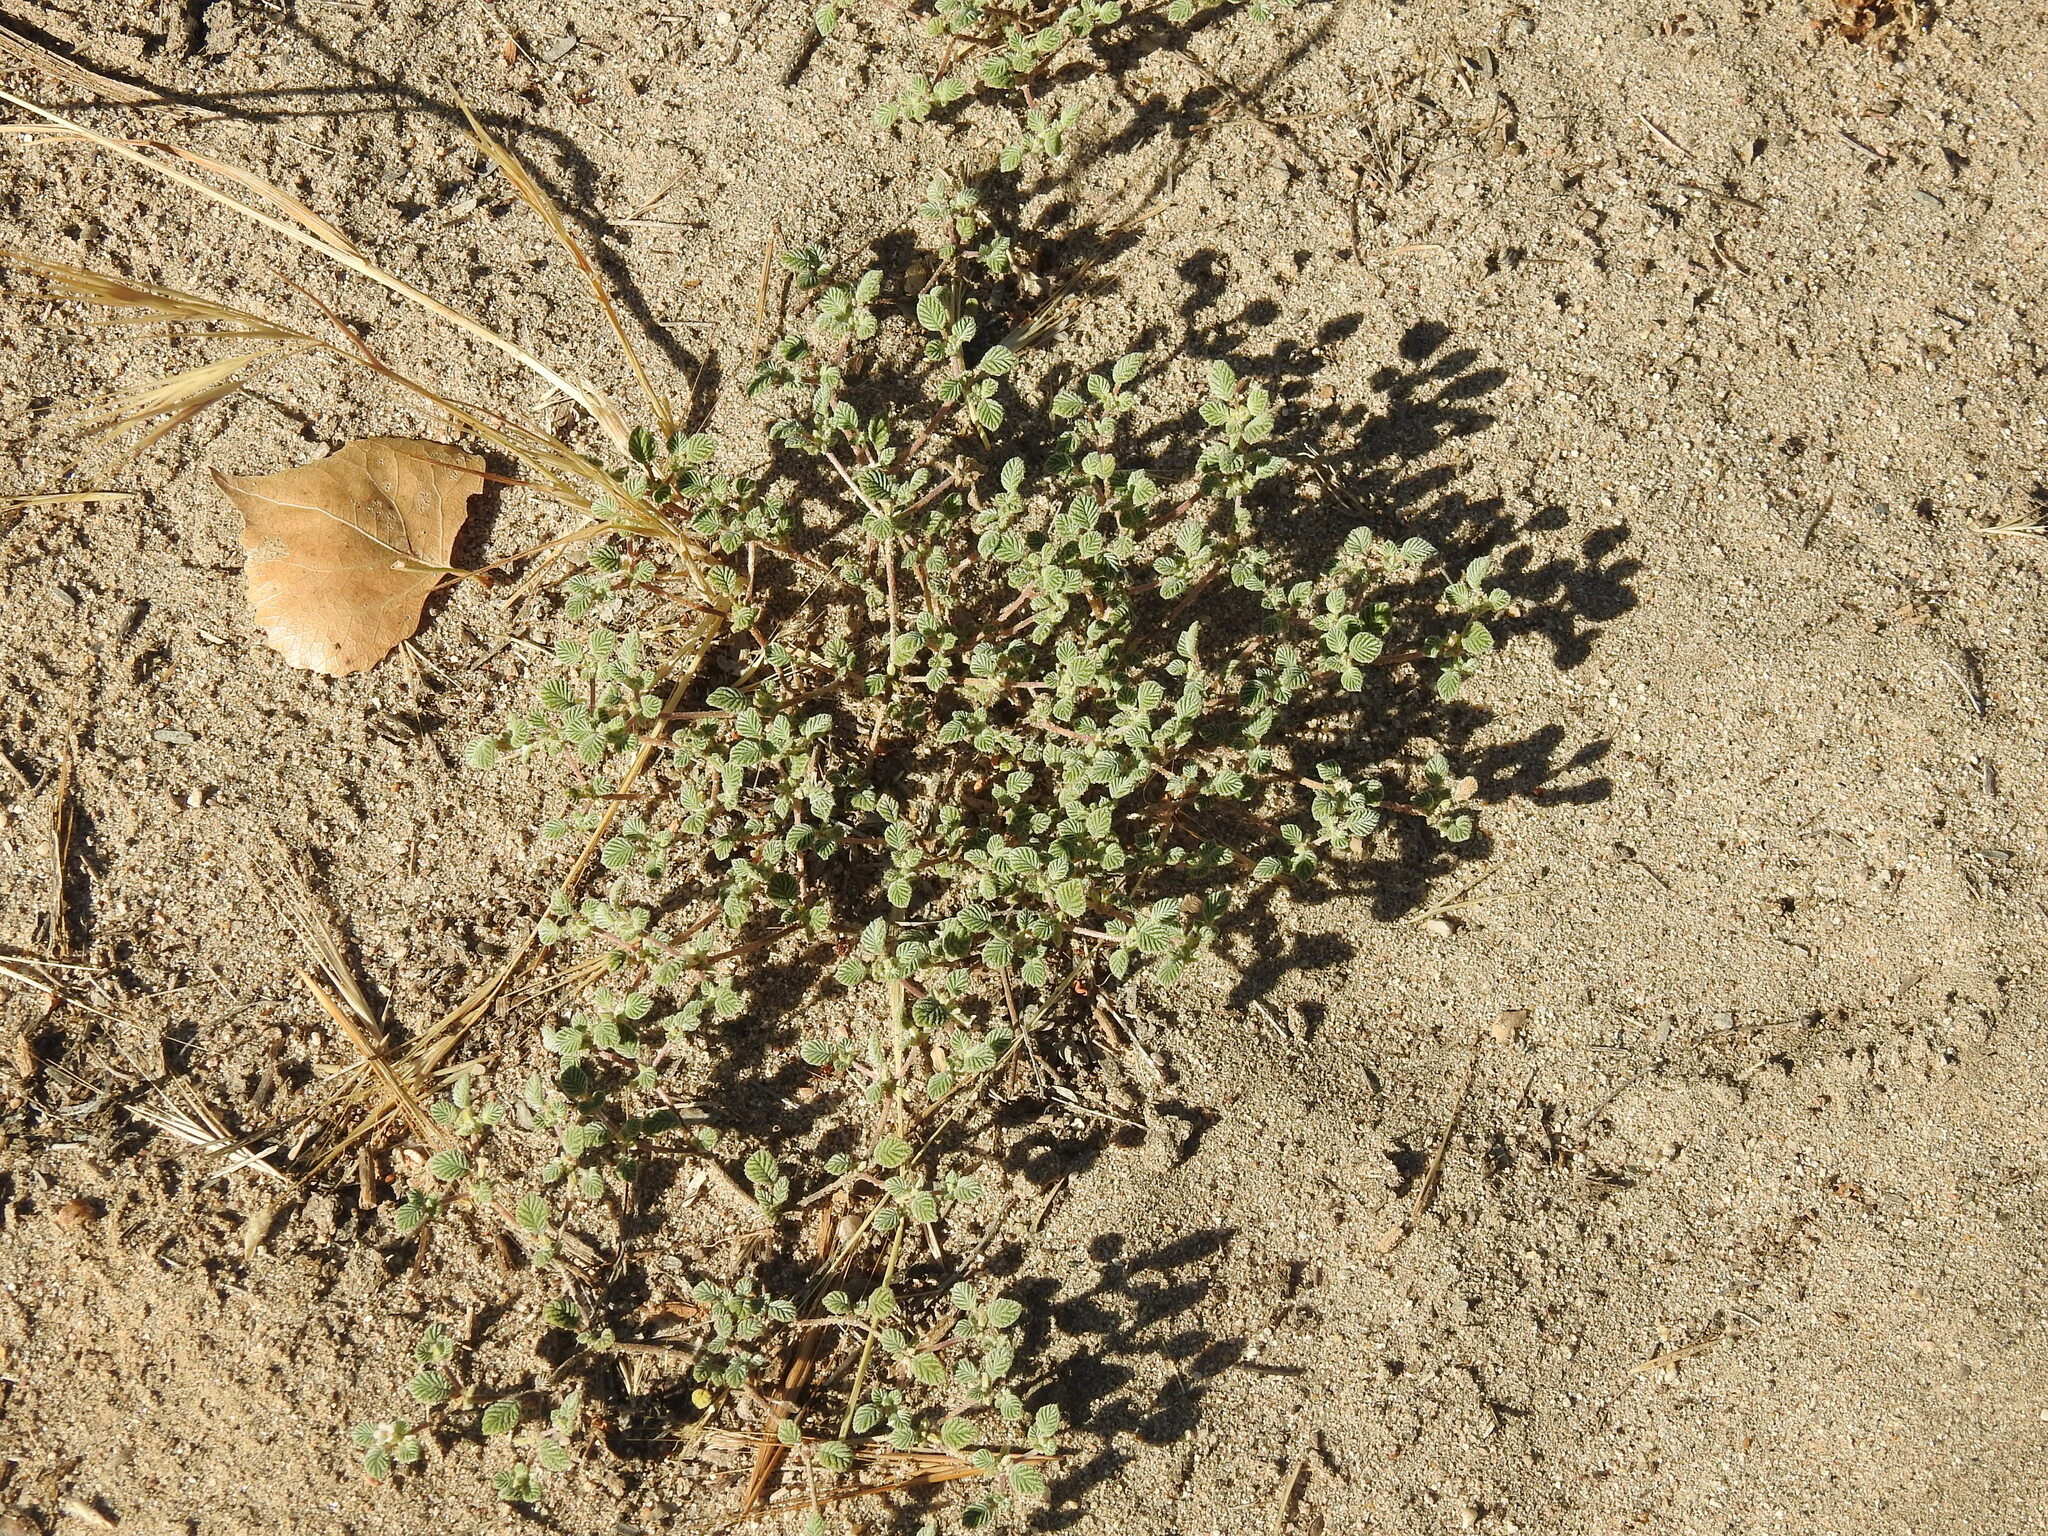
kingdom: Plantae
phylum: Tracheophyta
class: Magnoliopsida
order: Boraginales
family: Ehretiaceae
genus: Tiquilia
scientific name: Tiquilia plicata
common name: Fan-leaf tiquilia
